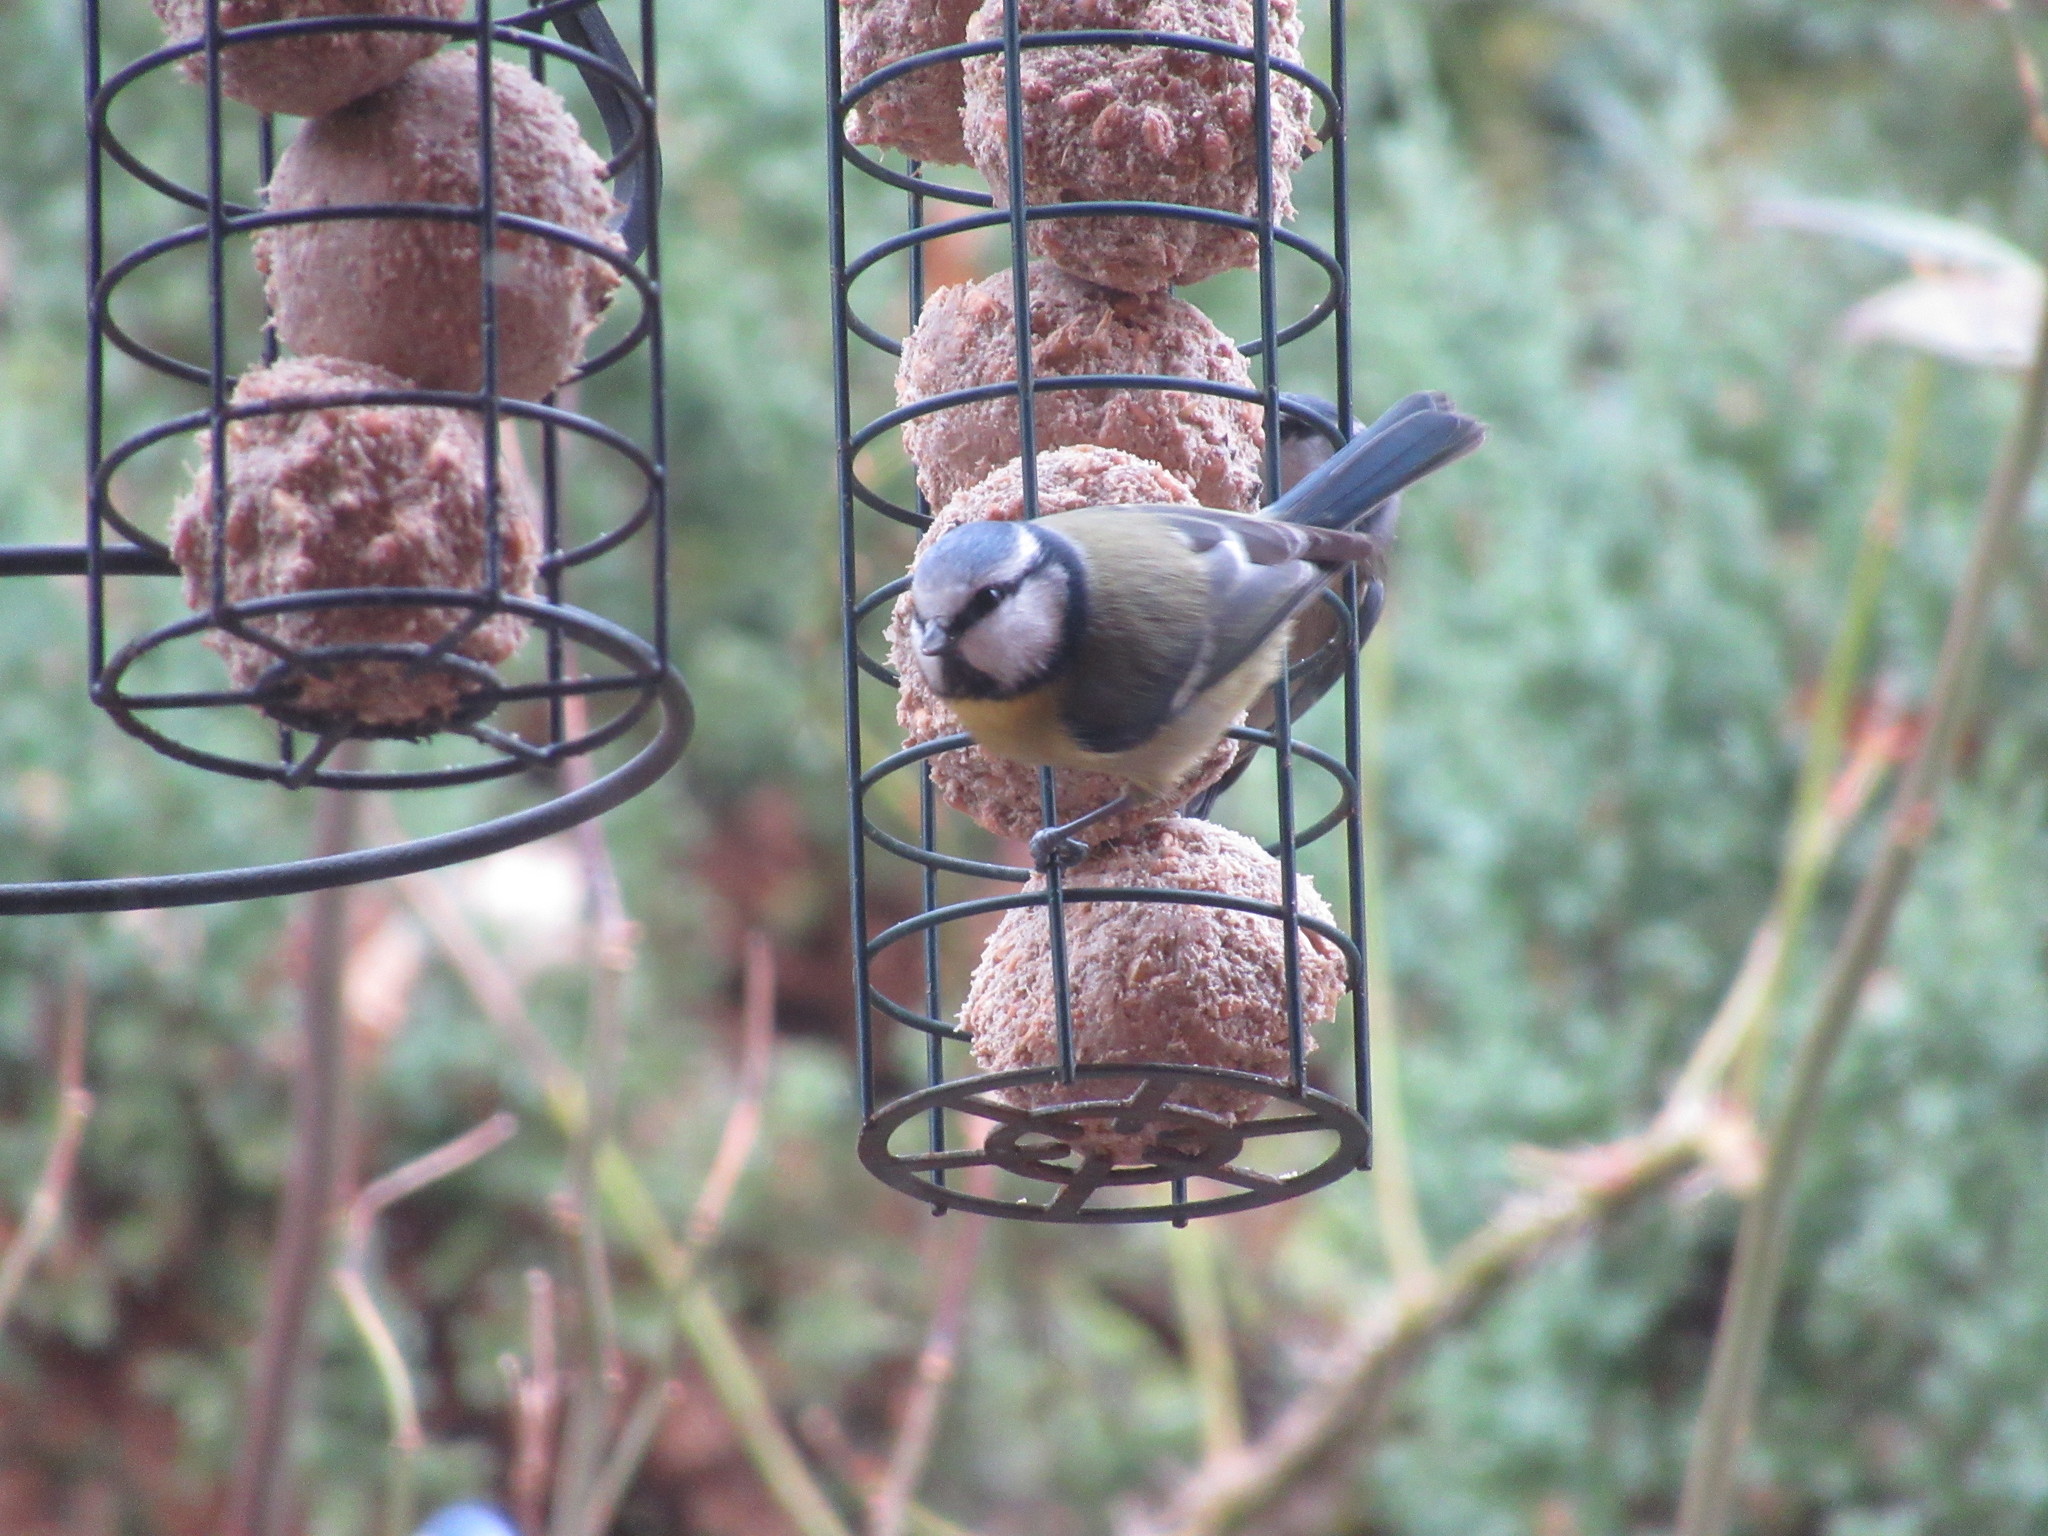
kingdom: Animalia
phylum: Chordata
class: Aves
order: Passeriformes
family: Paridae
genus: Cyanistes
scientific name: Cyanistes caeruleus
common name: Eurasian blue tit
